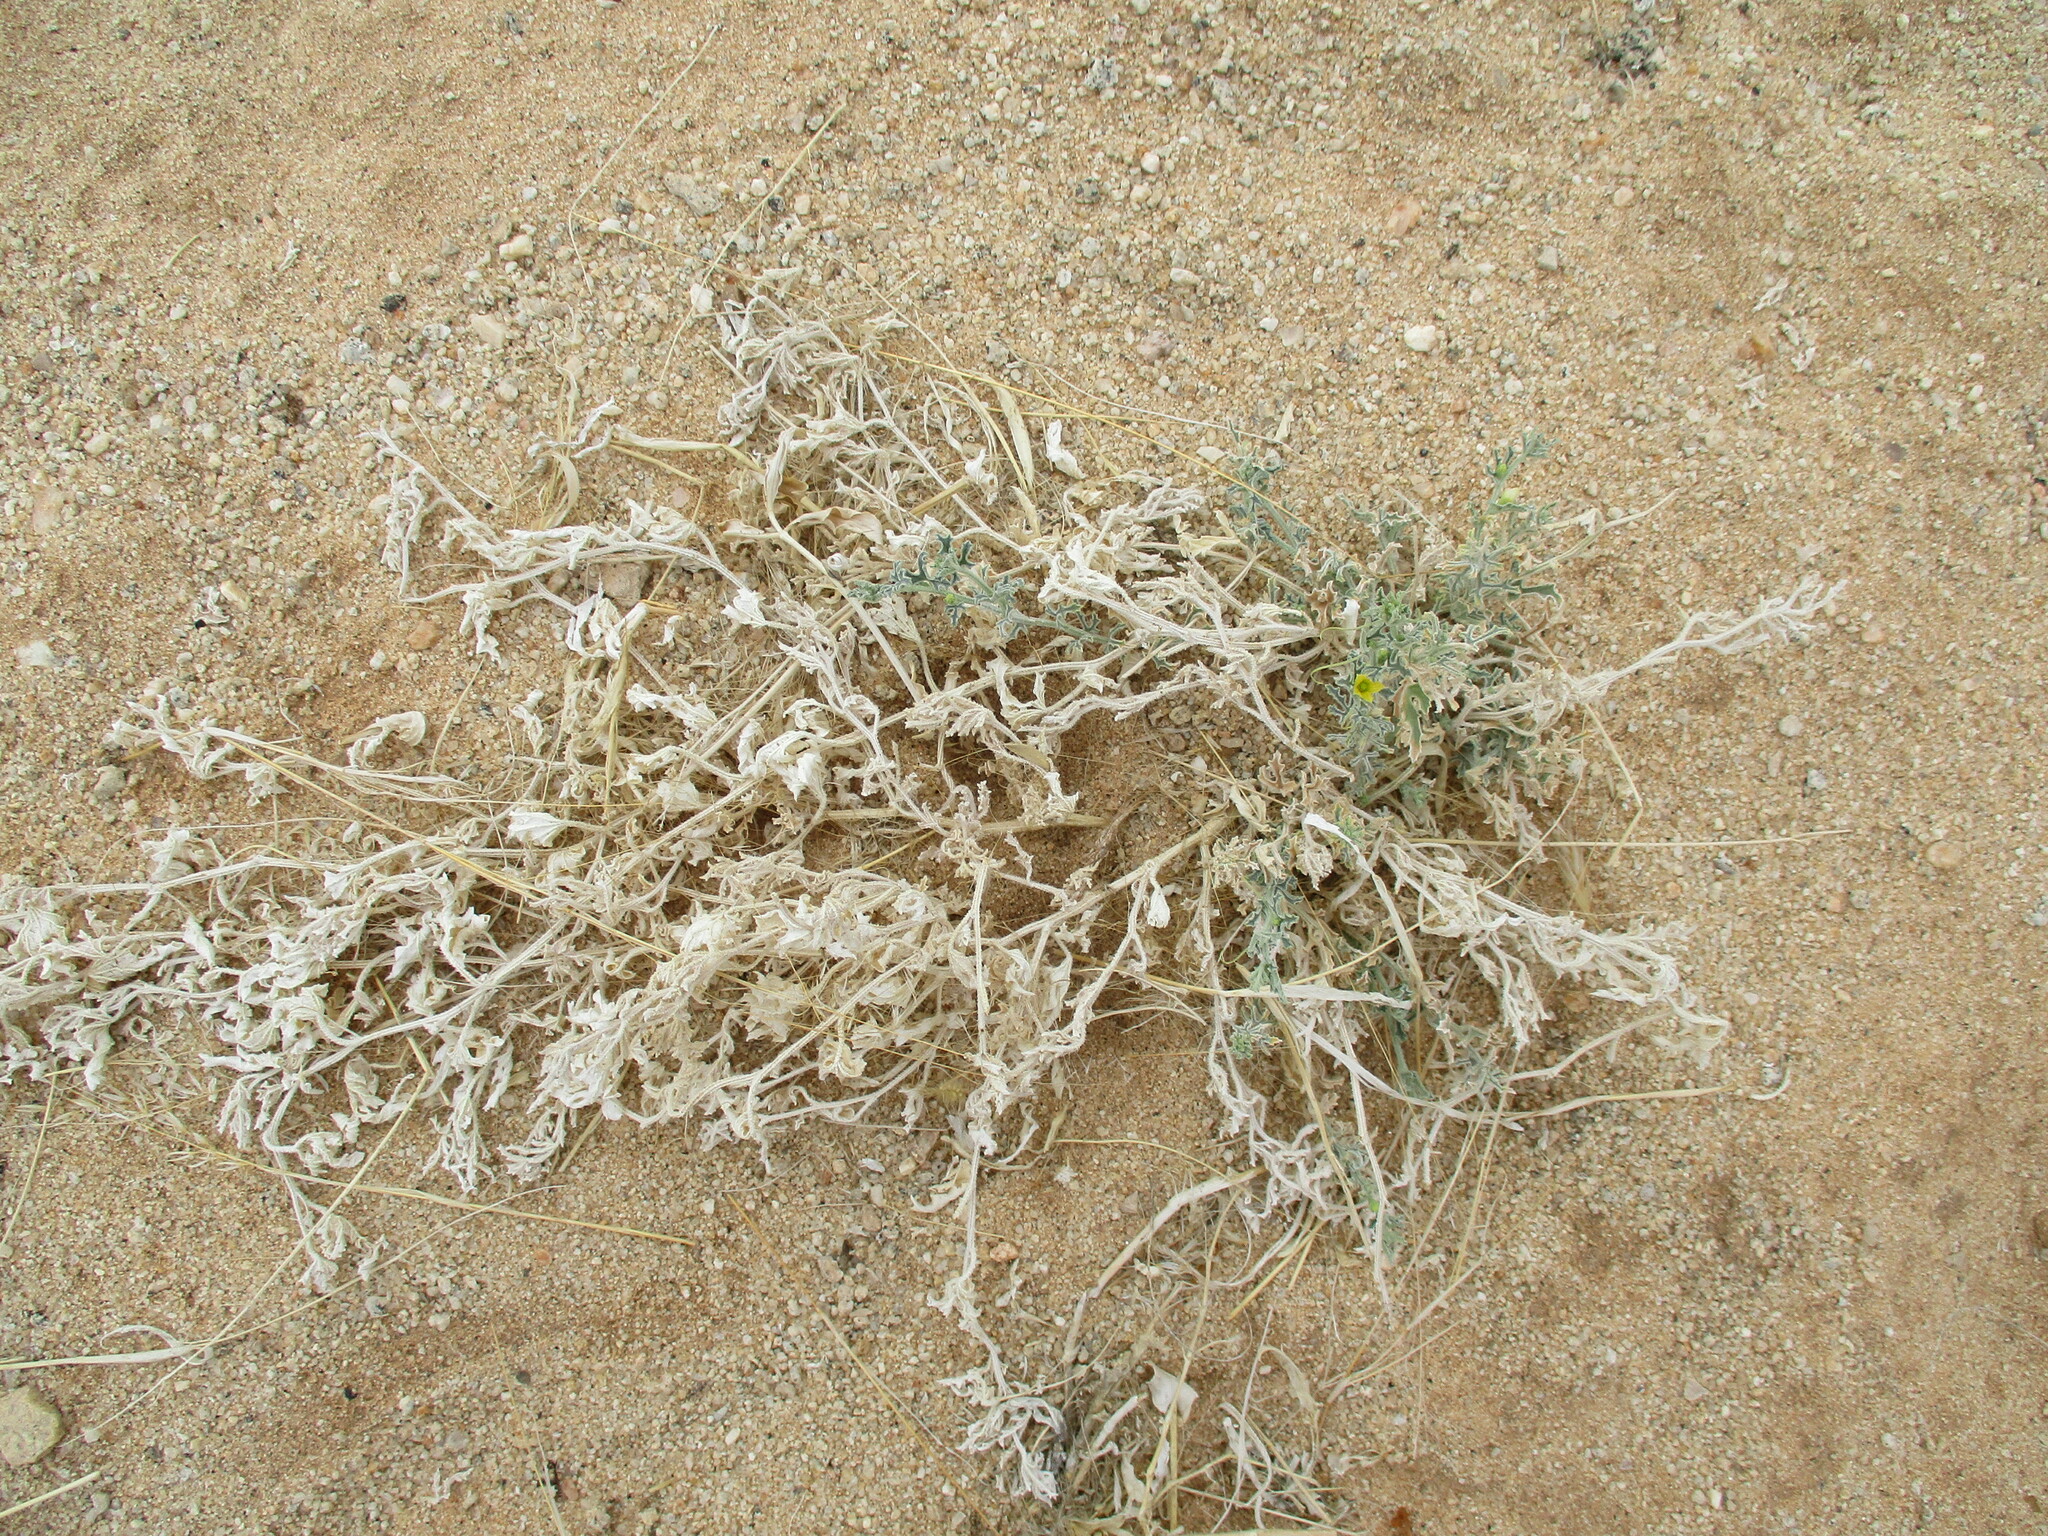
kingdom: Plantae
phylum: Tracheophyta
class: Magnoliopsida
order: Cucurbitales
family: Cucurbitaceae
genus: Cucumis
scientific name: Cucumis meeusei
